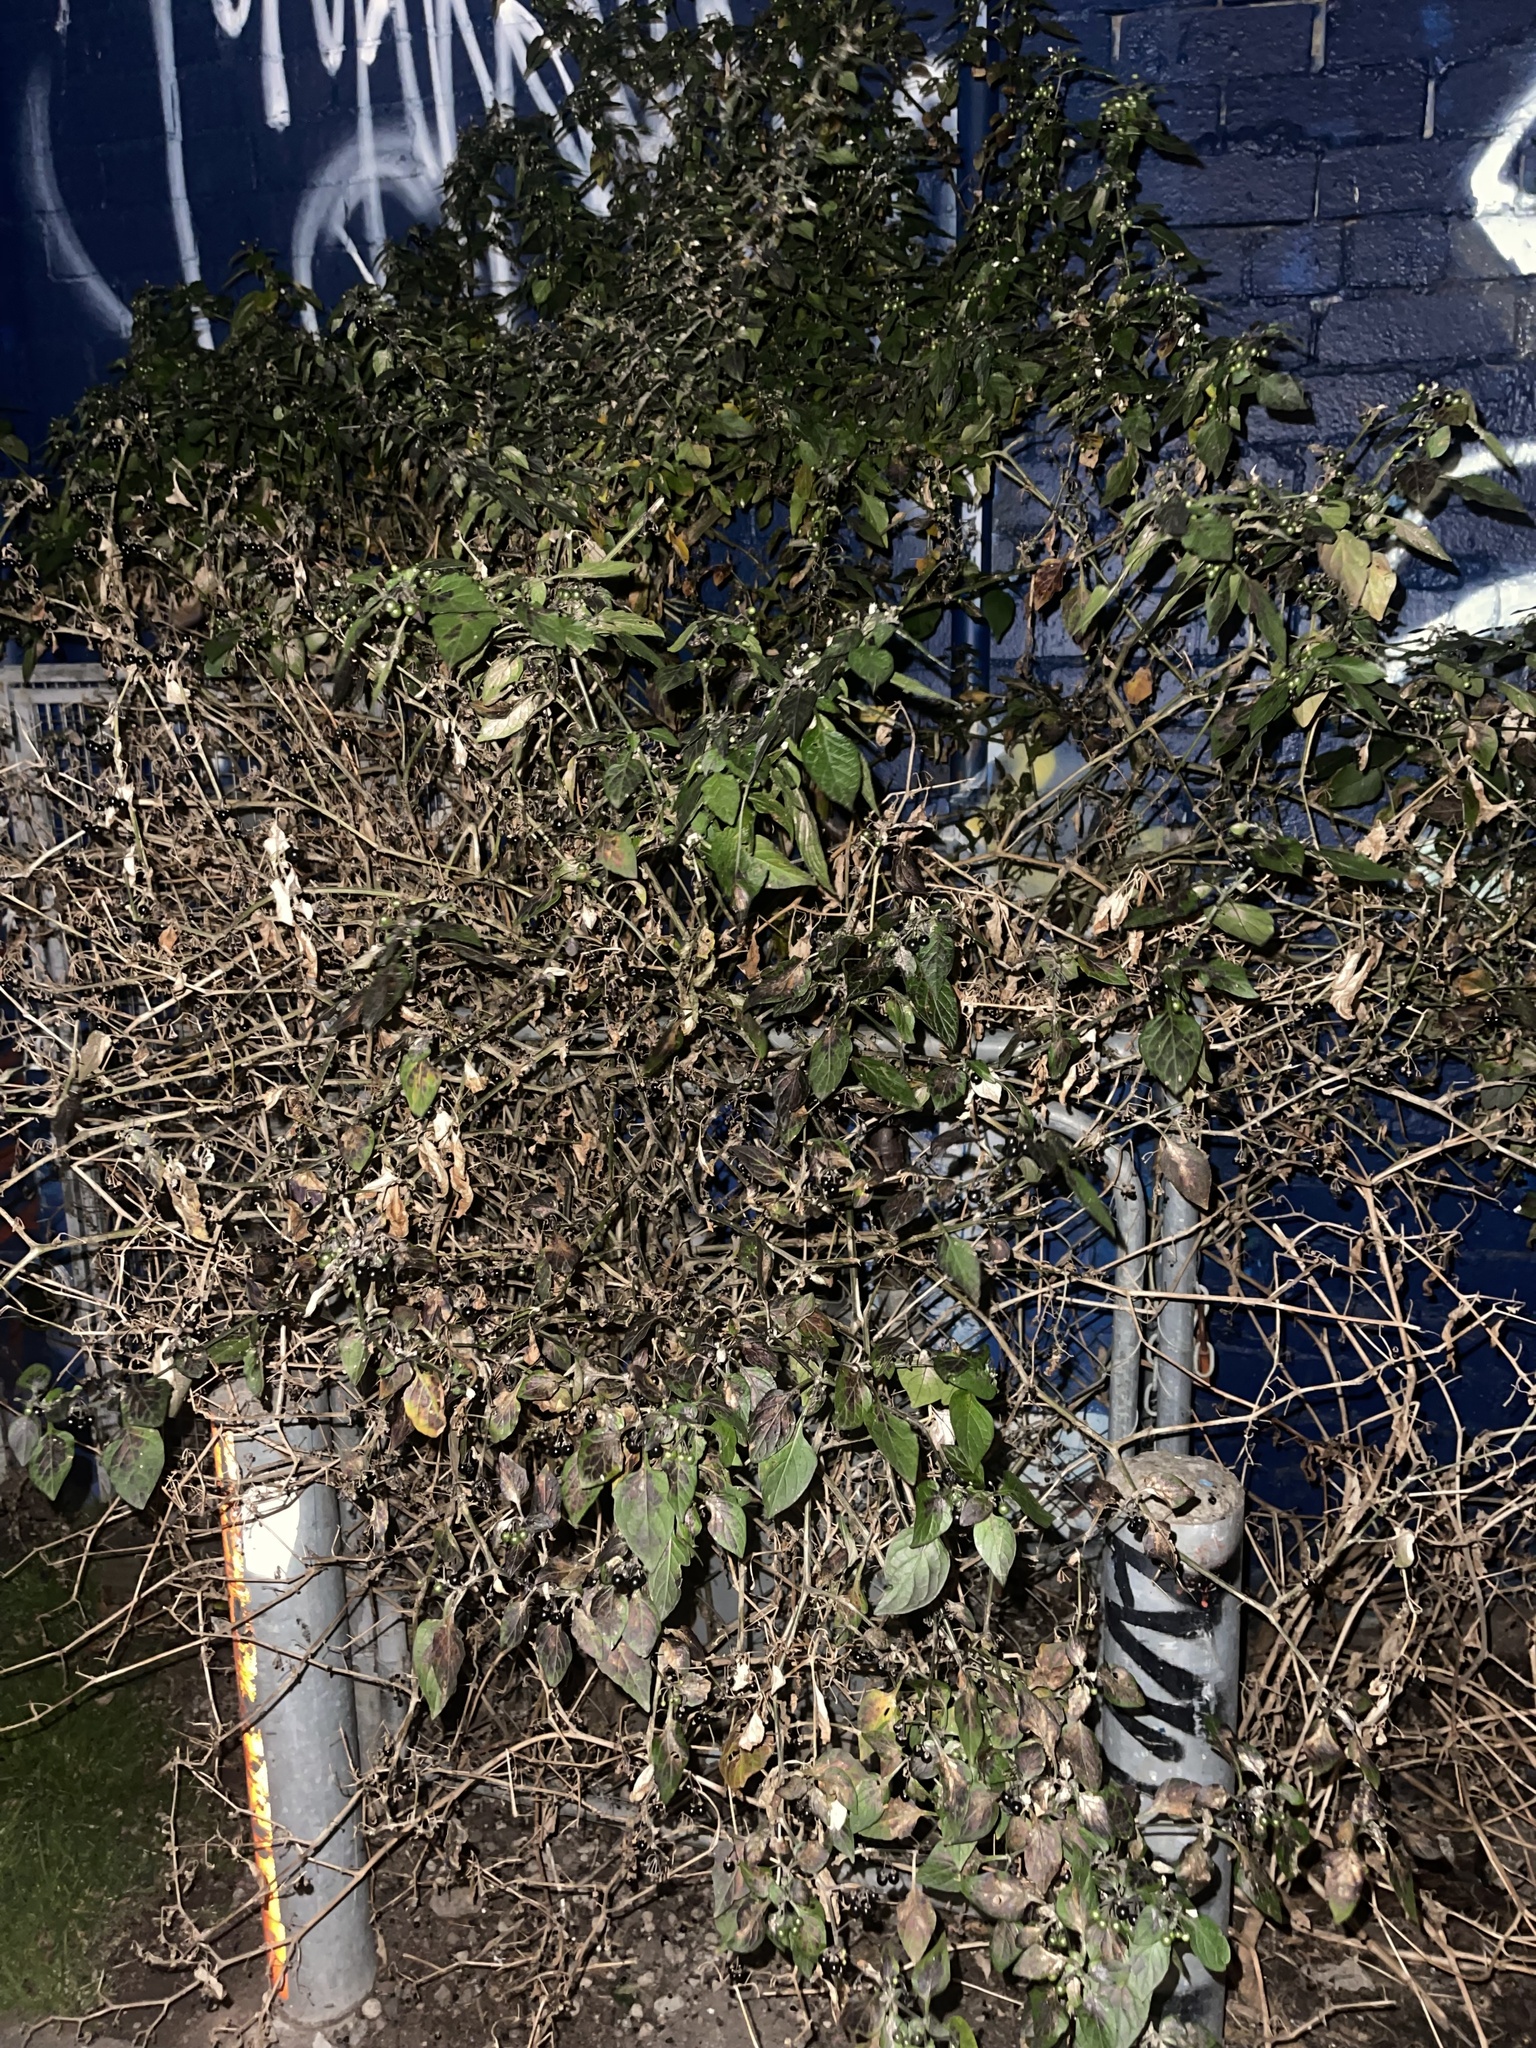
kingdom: Plantae
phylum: Tracheophyta
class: Magnoliopsida
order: Solanales
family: Solanaceae
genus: Solanum
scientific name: Solanum nigrum
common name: Black nightshade
